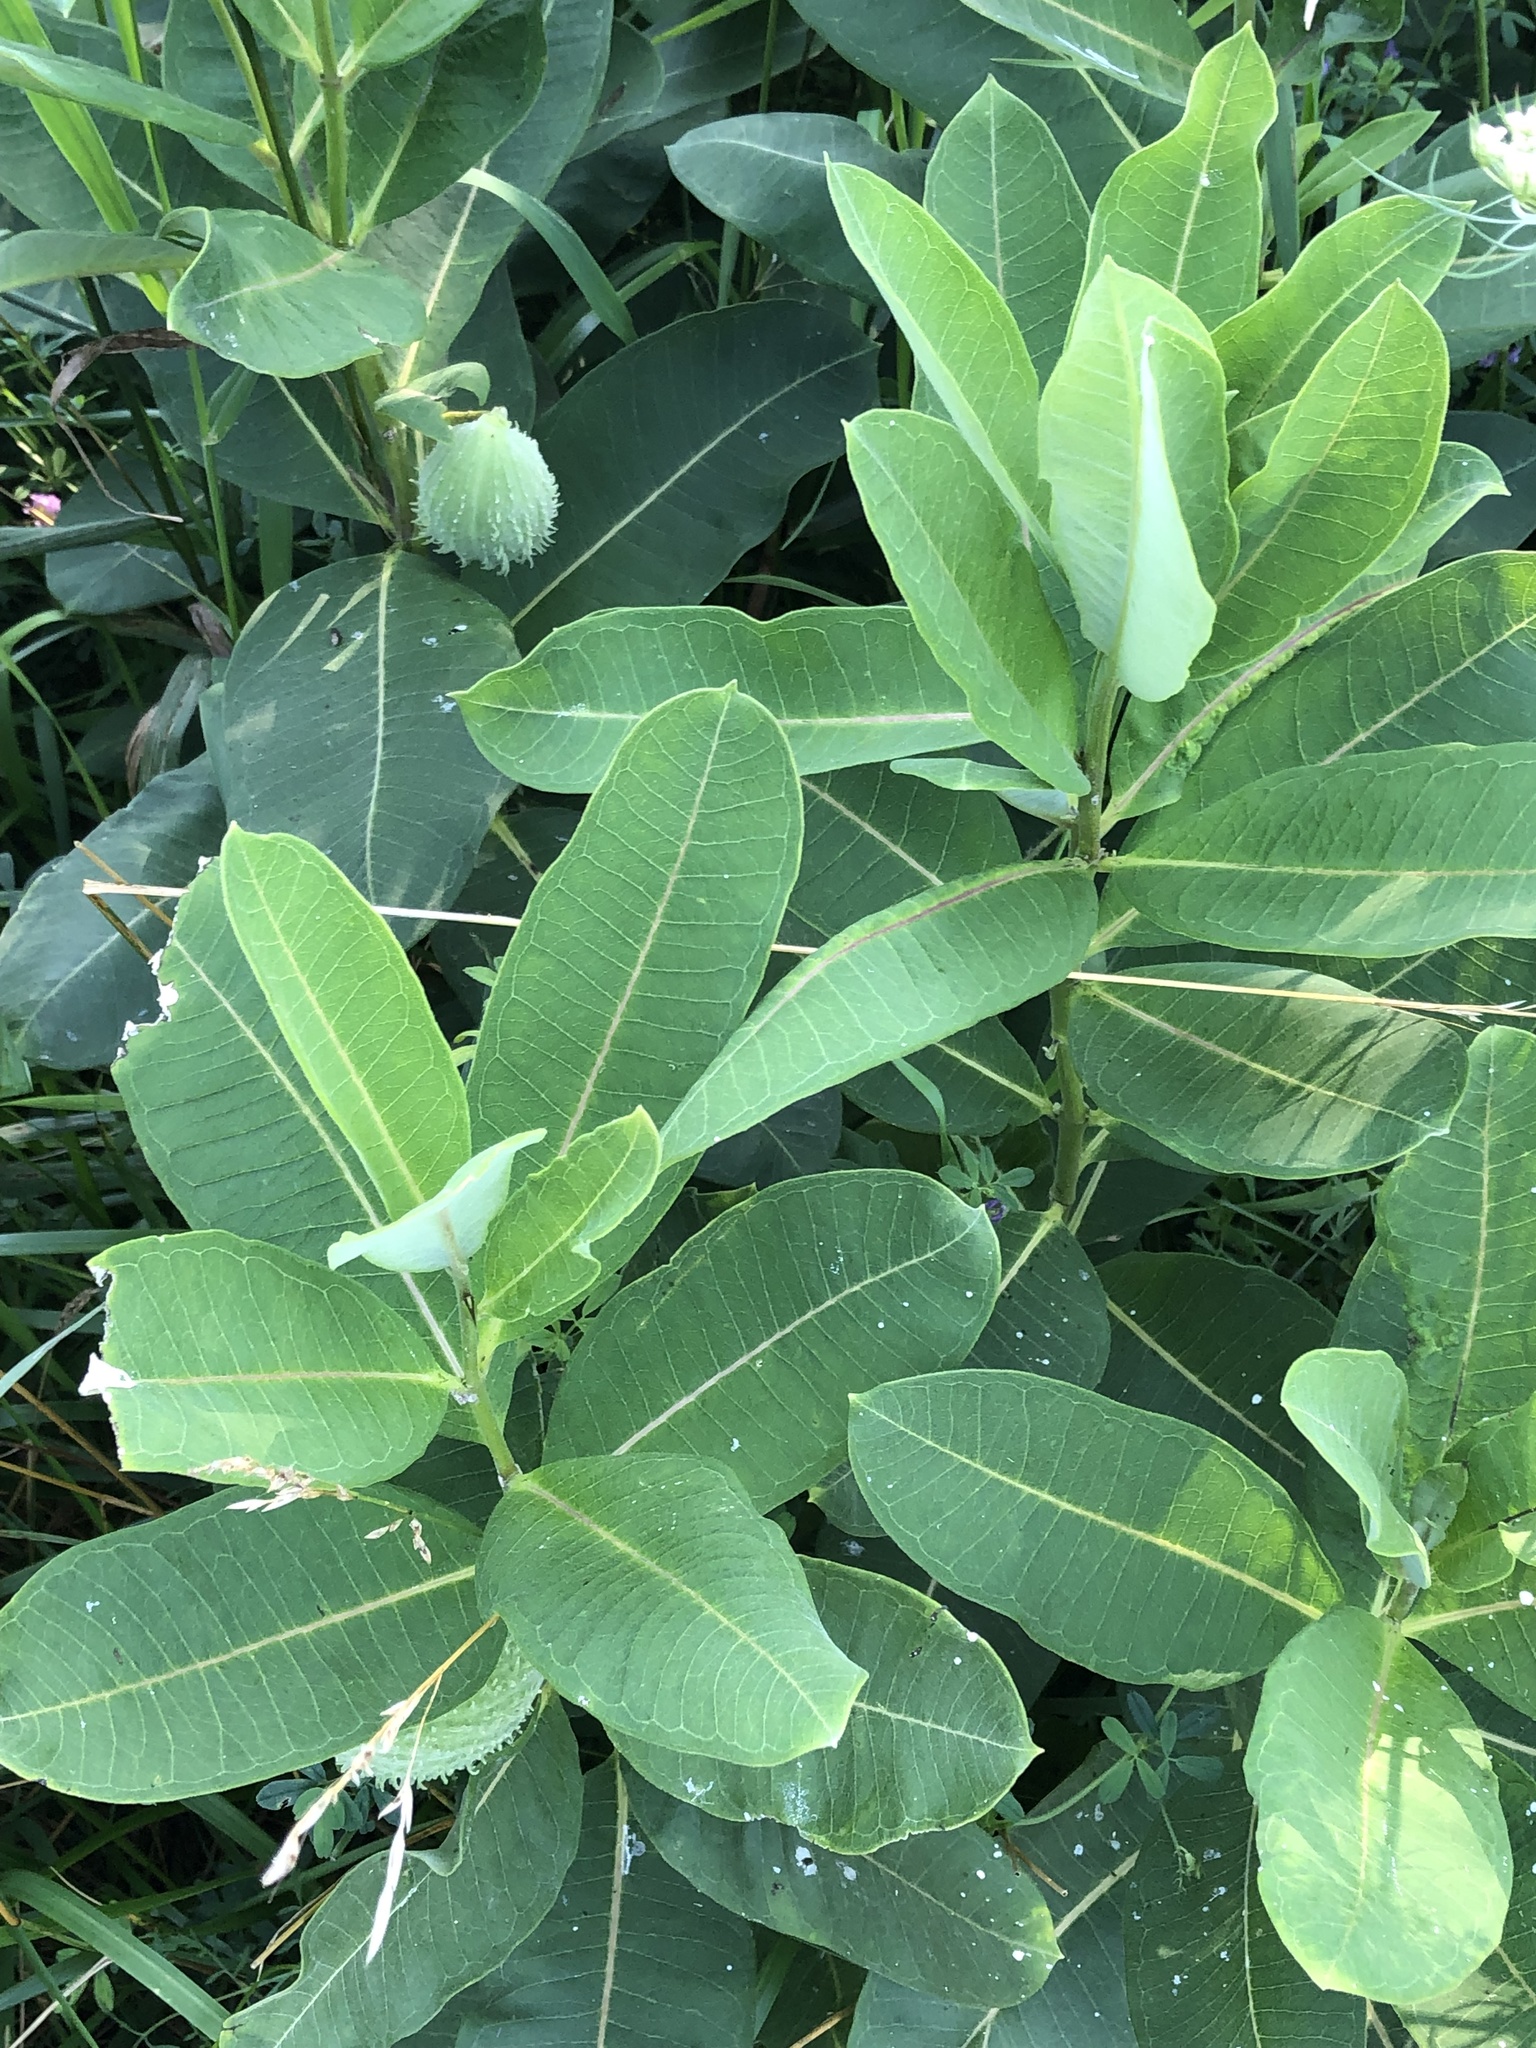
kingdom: Plantae
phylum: Tracheophyta
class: Magnoliopsida
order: Gentianales
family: Apocynaceae
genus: Asclepias
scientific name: Asclepias syriaca
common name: Common milkweed
